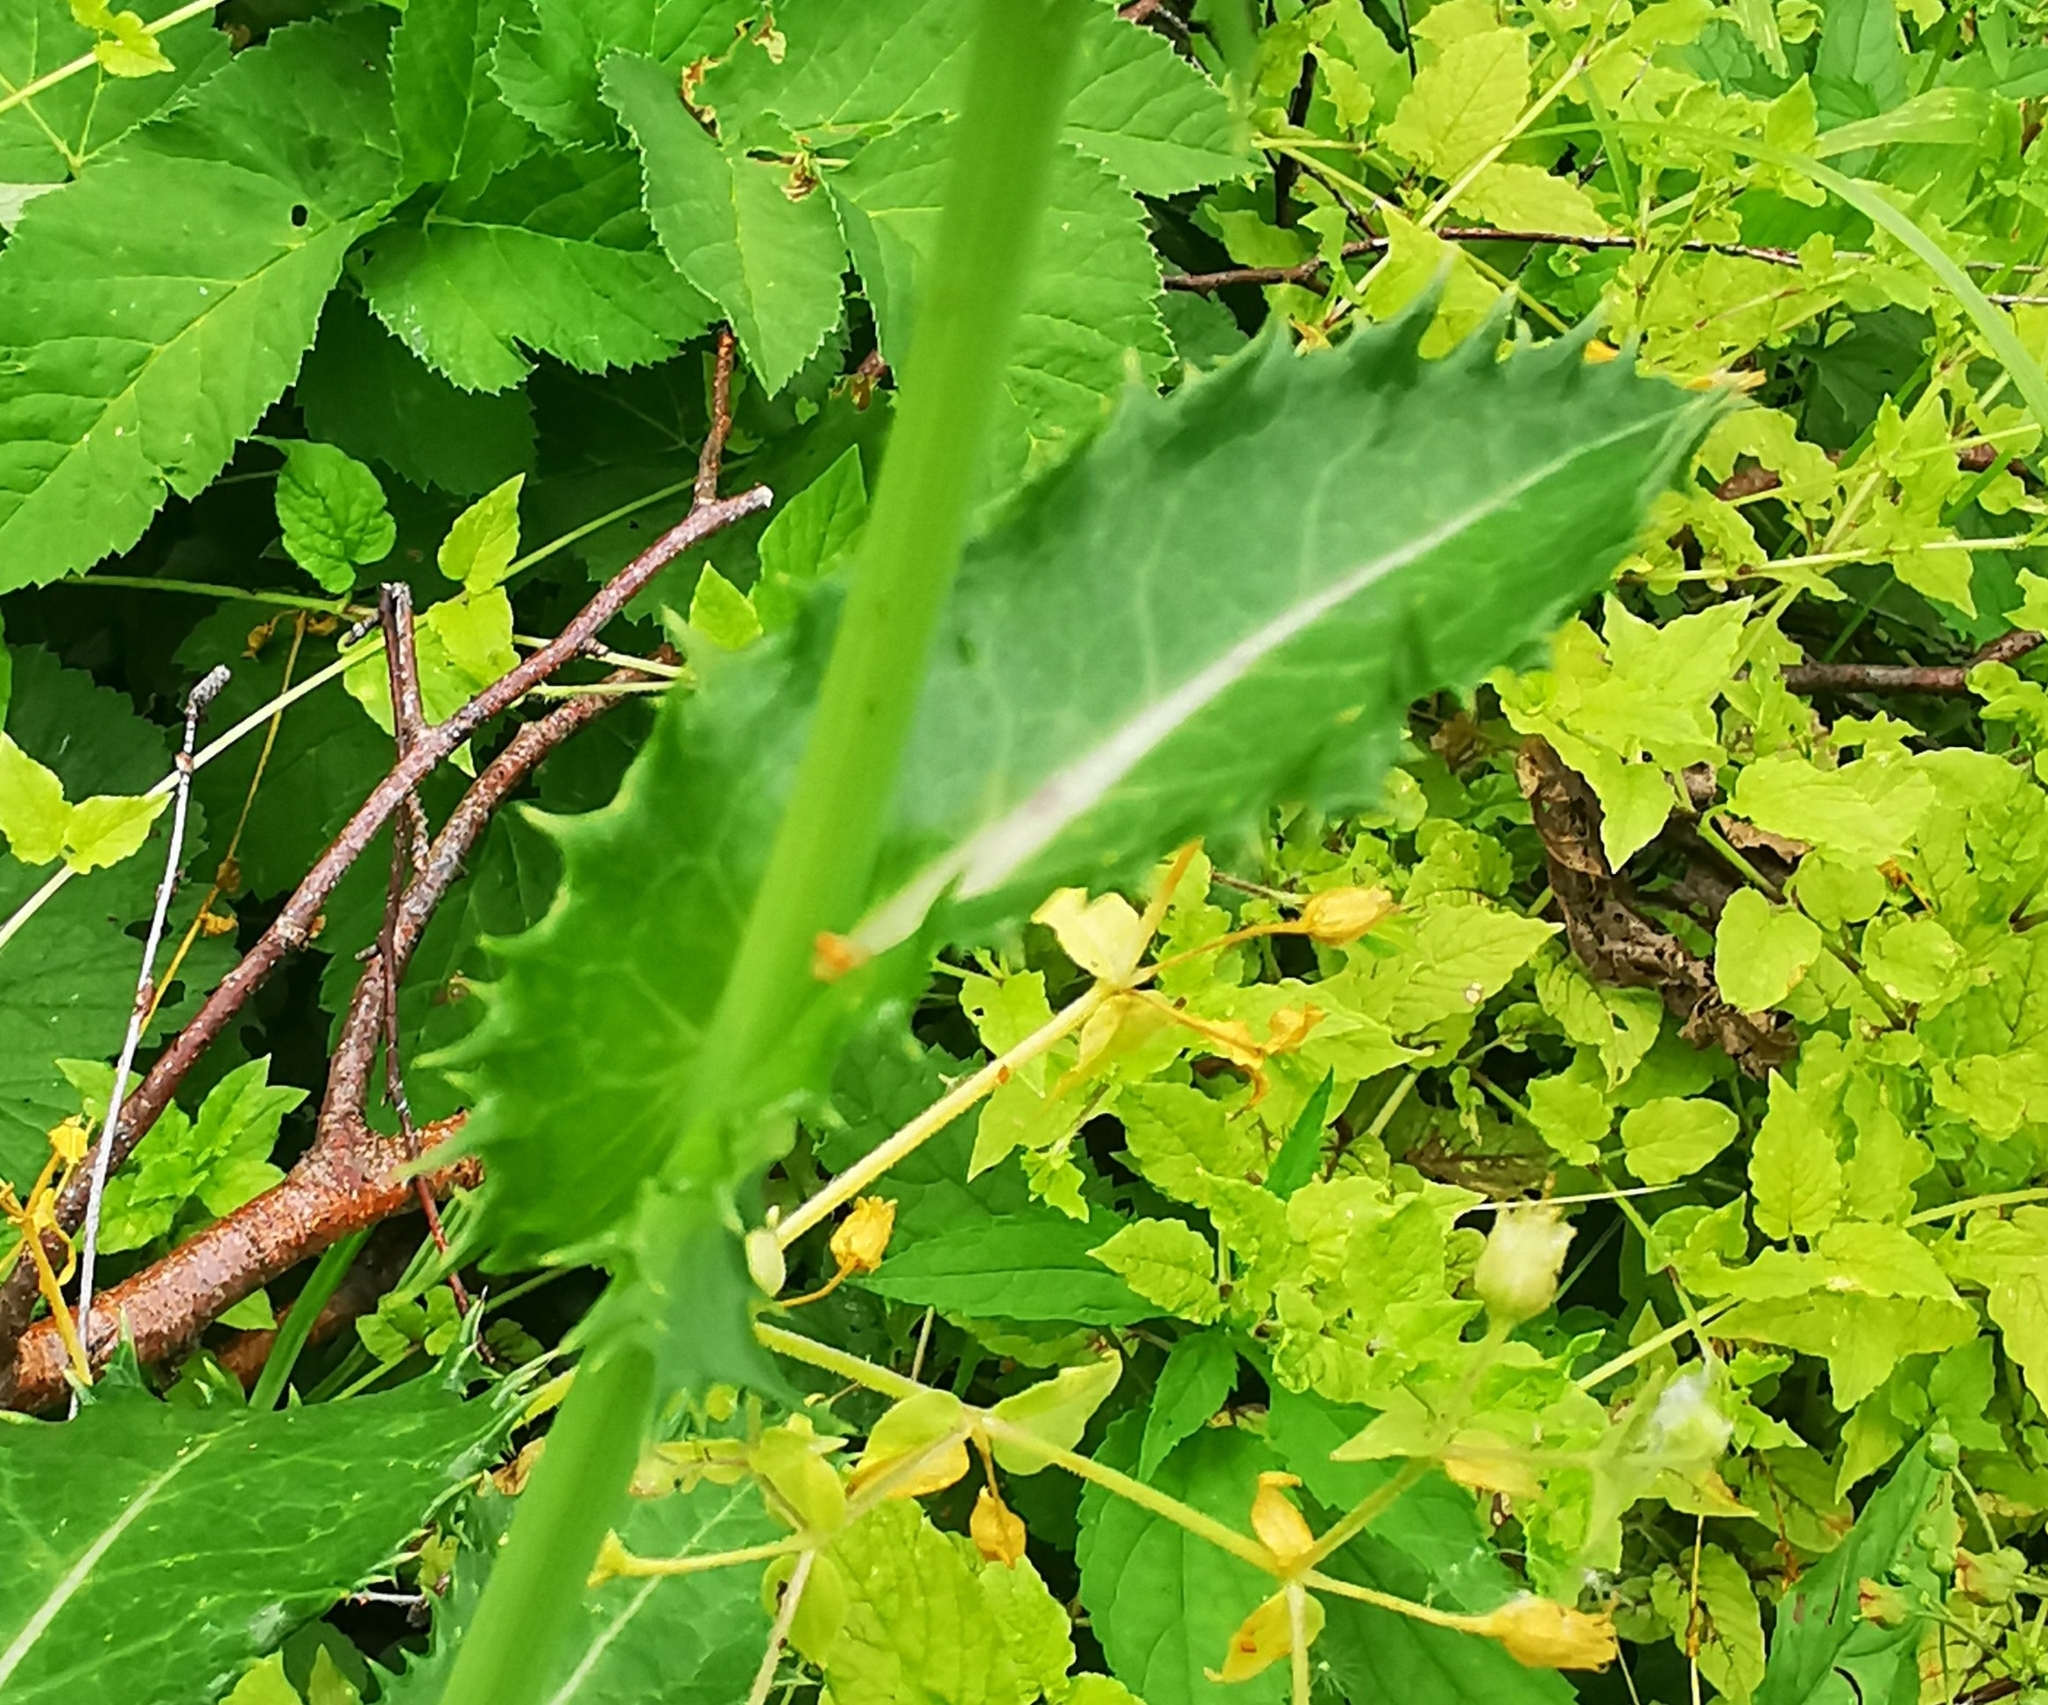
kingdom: Plantae
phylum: Tracheophyta
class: Magnoliopsida
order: Asterales
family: Asteraceae
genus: Sonchus
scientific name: Sonchus asper
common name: Prickly sow-thistle
